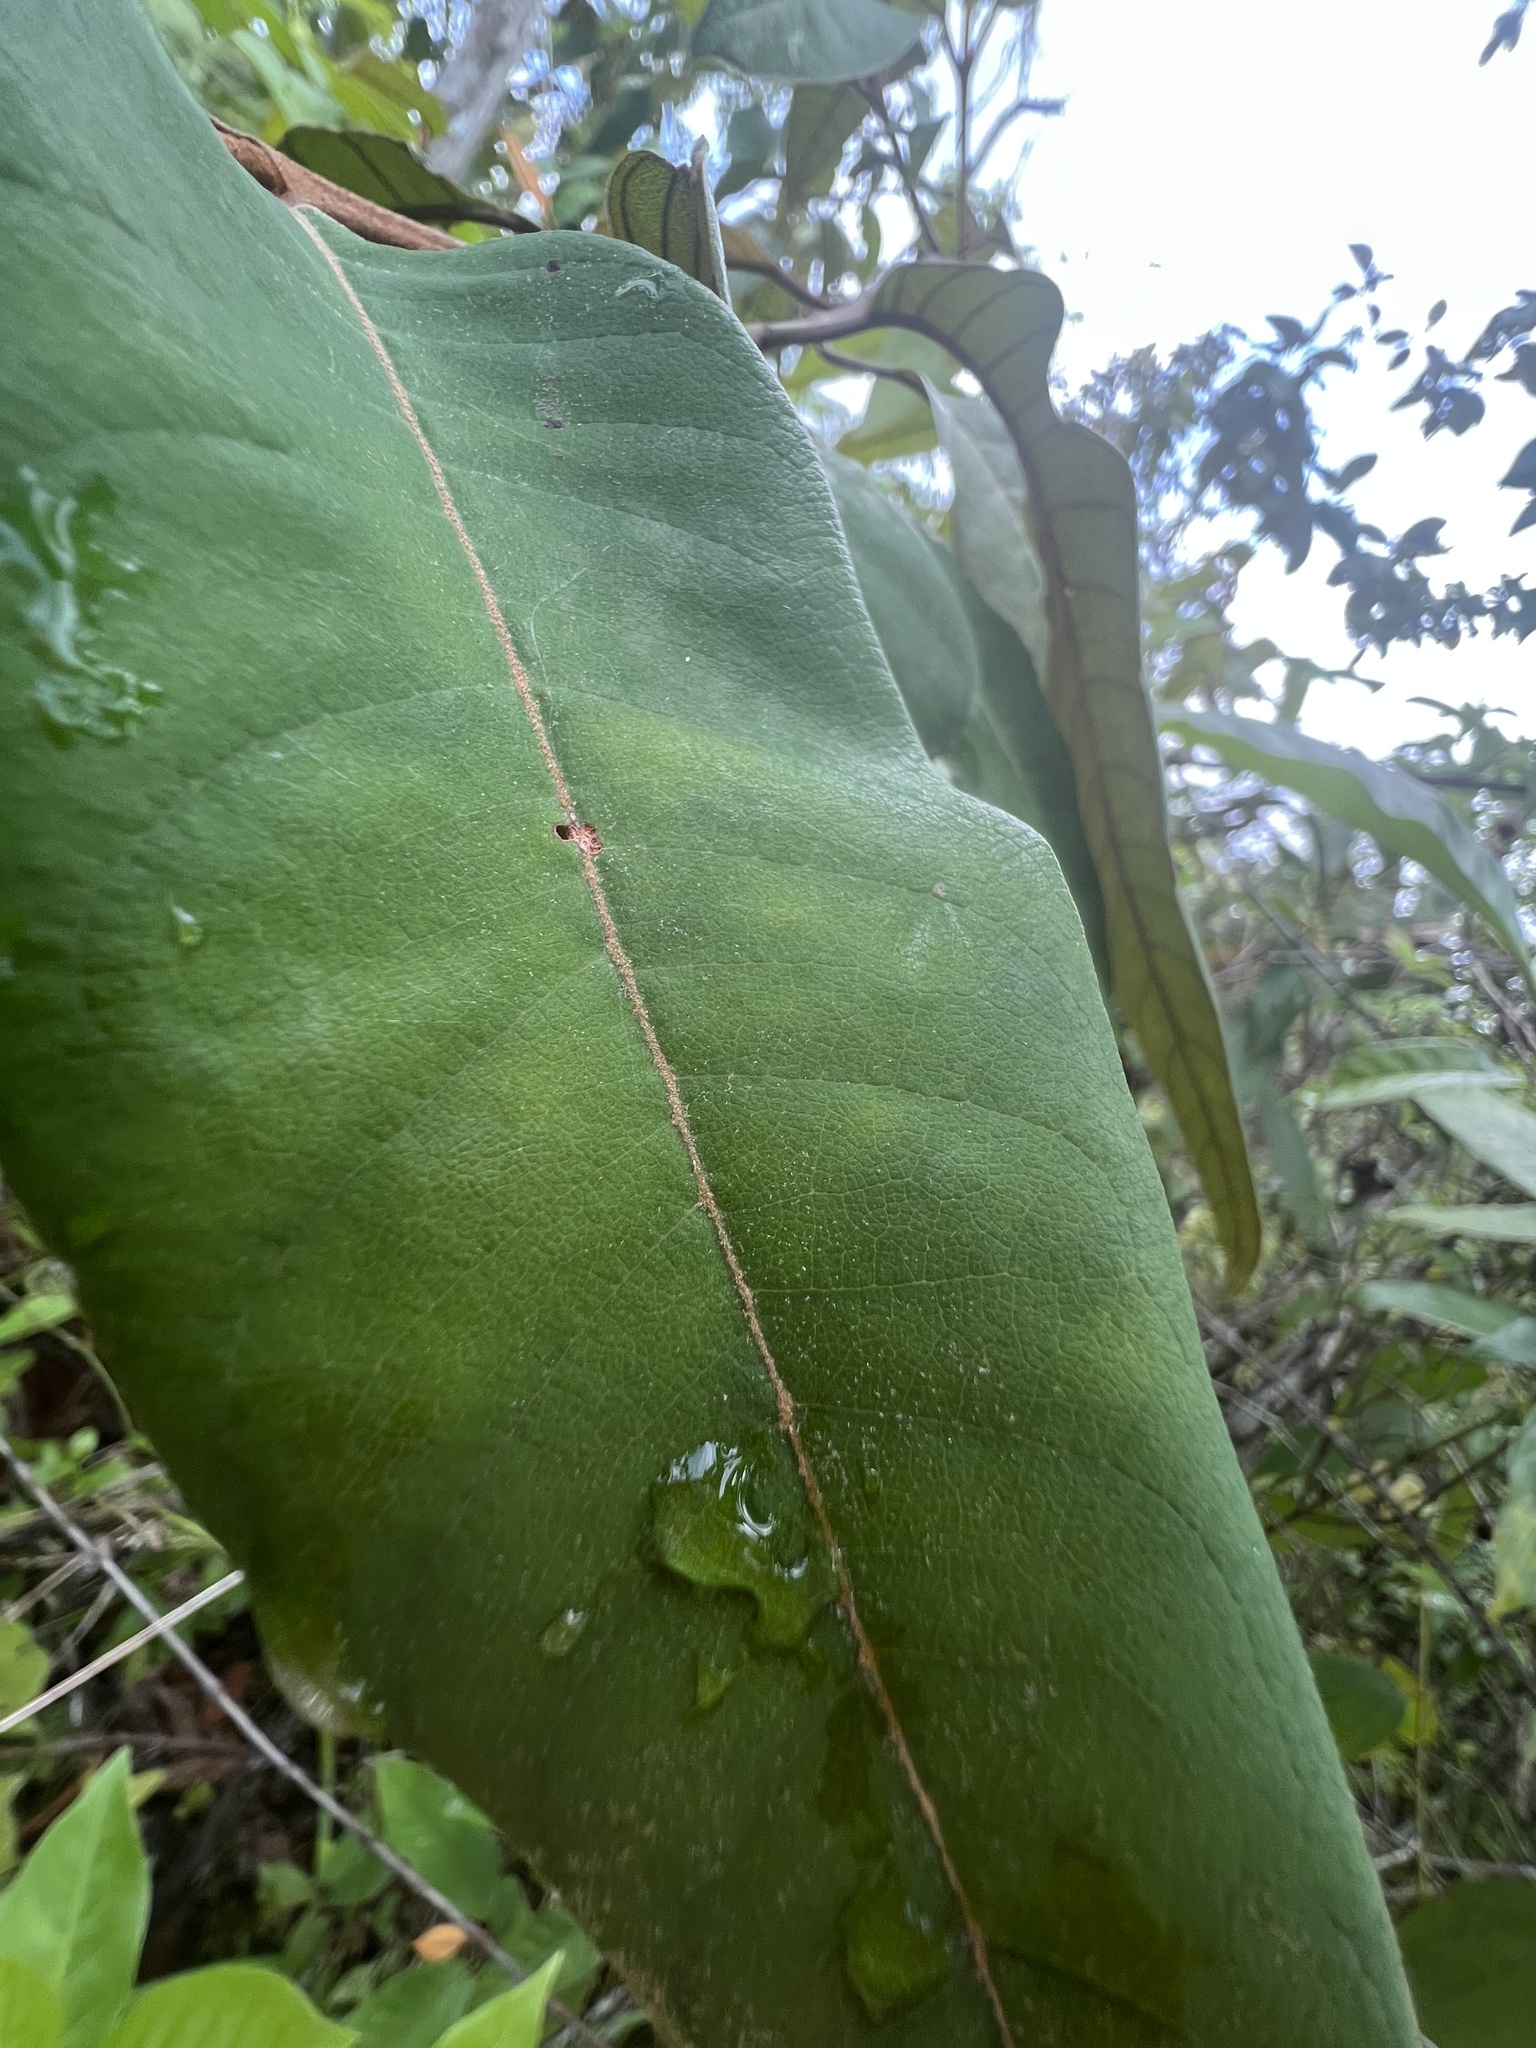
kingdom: Plantae
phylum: Tracheophyta
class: Magnoliopsida
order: Malpighiales
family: Hypericaceae
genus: Vismia
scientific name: Vismia camparaguey
